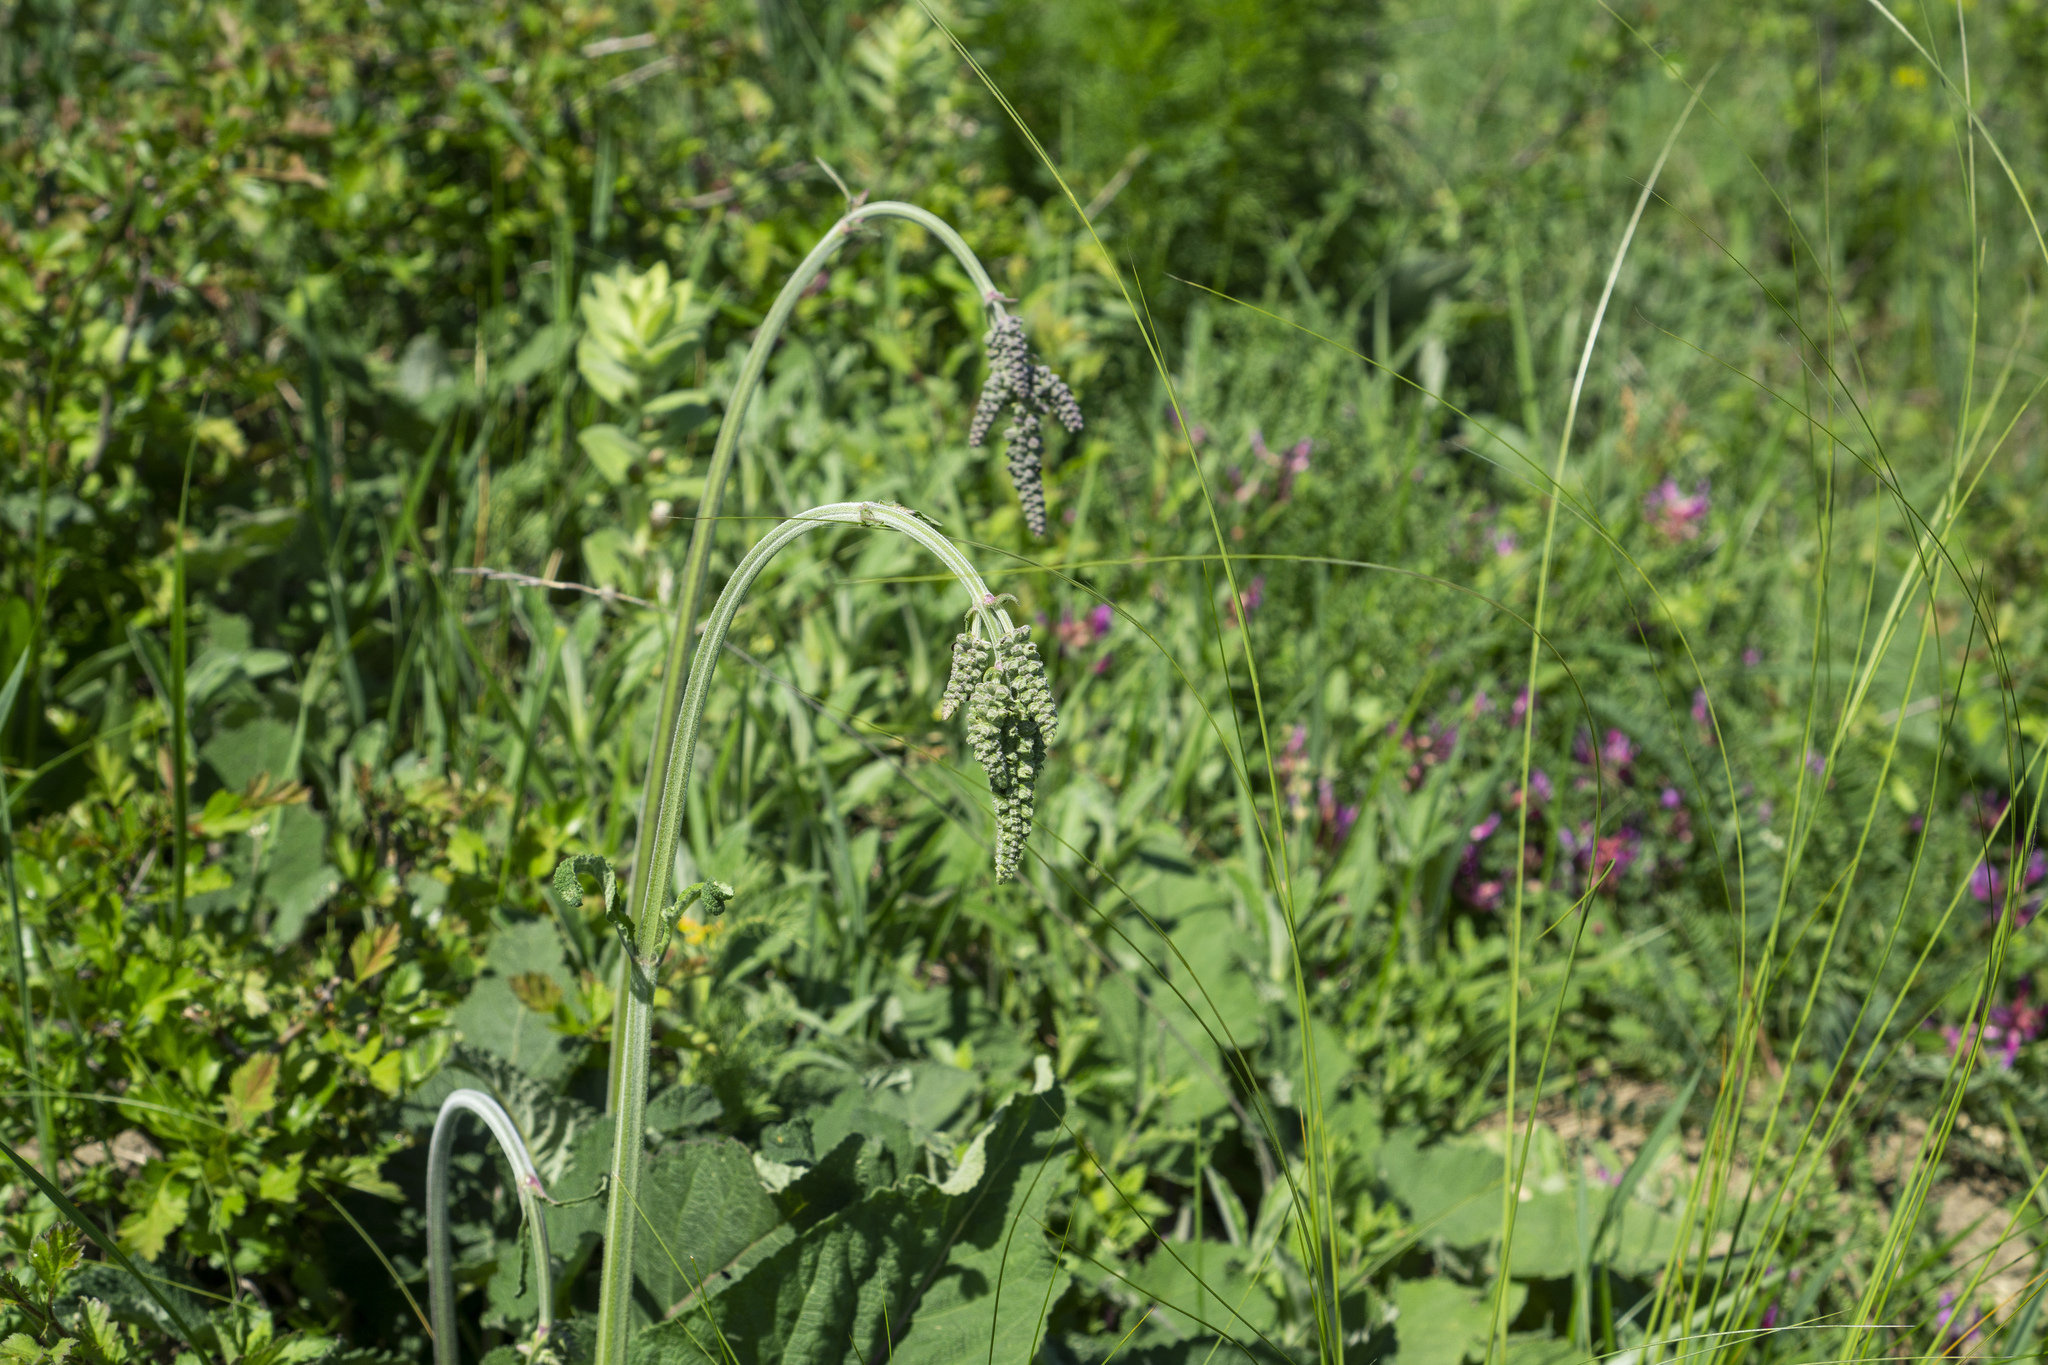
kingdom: Plantae
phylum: Tracheophyta
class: Magnoliopsida
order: Lamiales
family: Lamiaceae
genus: Salvia
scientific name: Salvia nutans
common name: Nodding sage
